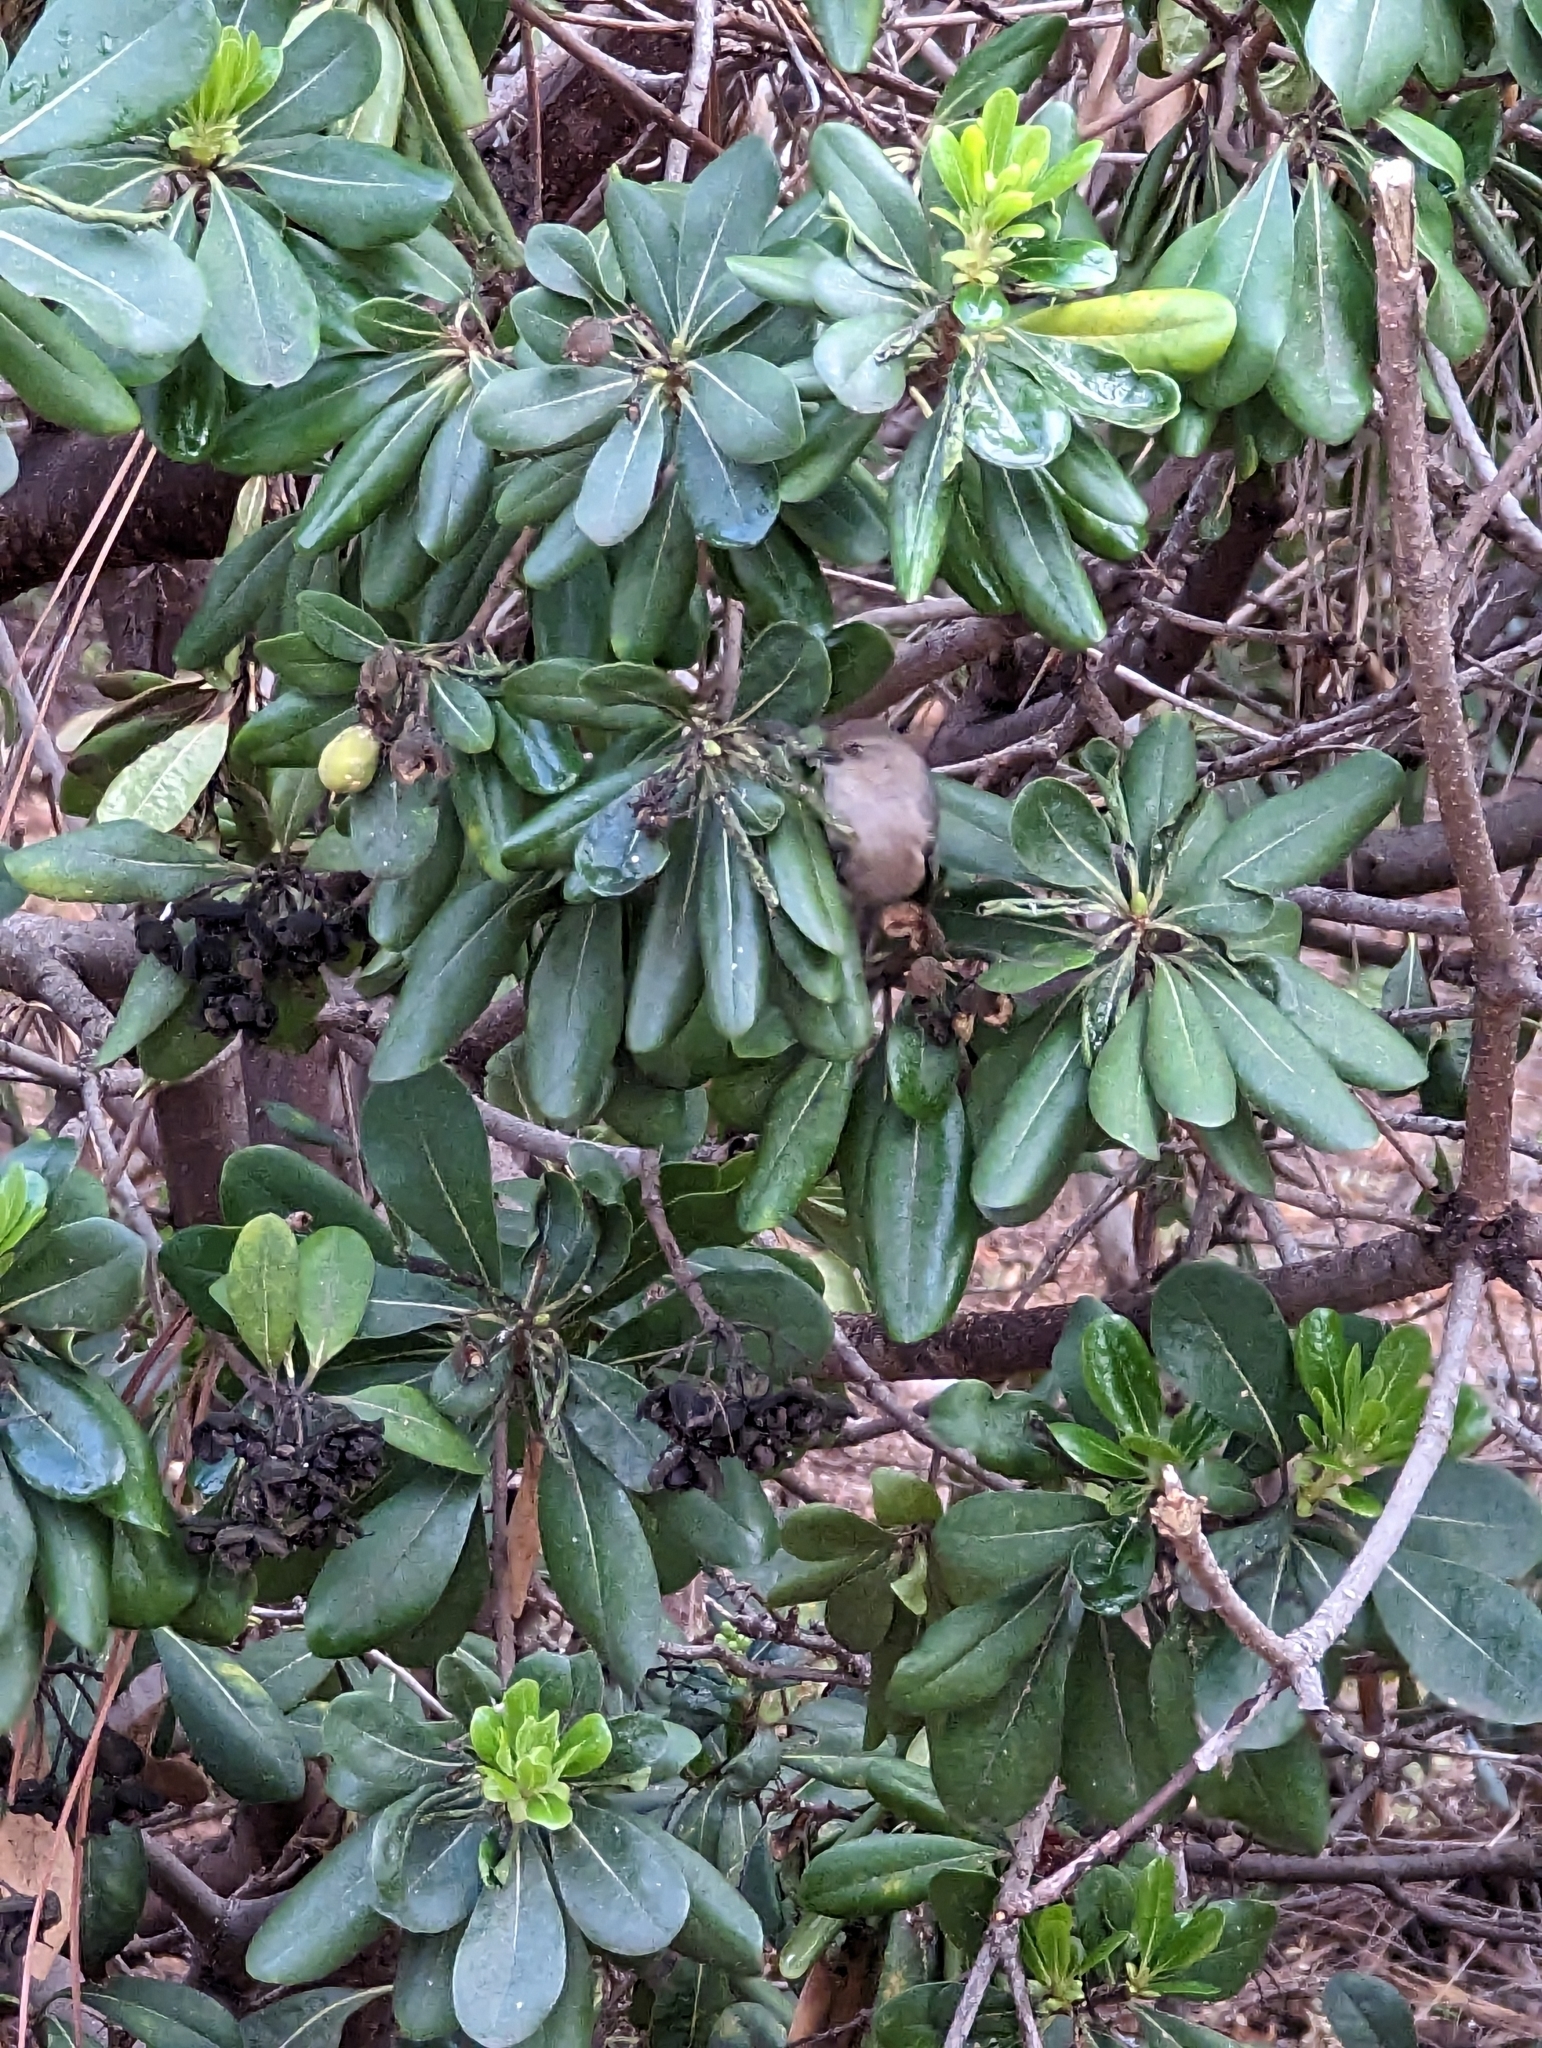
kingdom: Animalia
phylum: Chordata
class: Aves
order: Passeriformes
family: Aegithalidae
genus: Psaltriparus
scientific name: Psaltriparus minimus
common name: American bushtit
